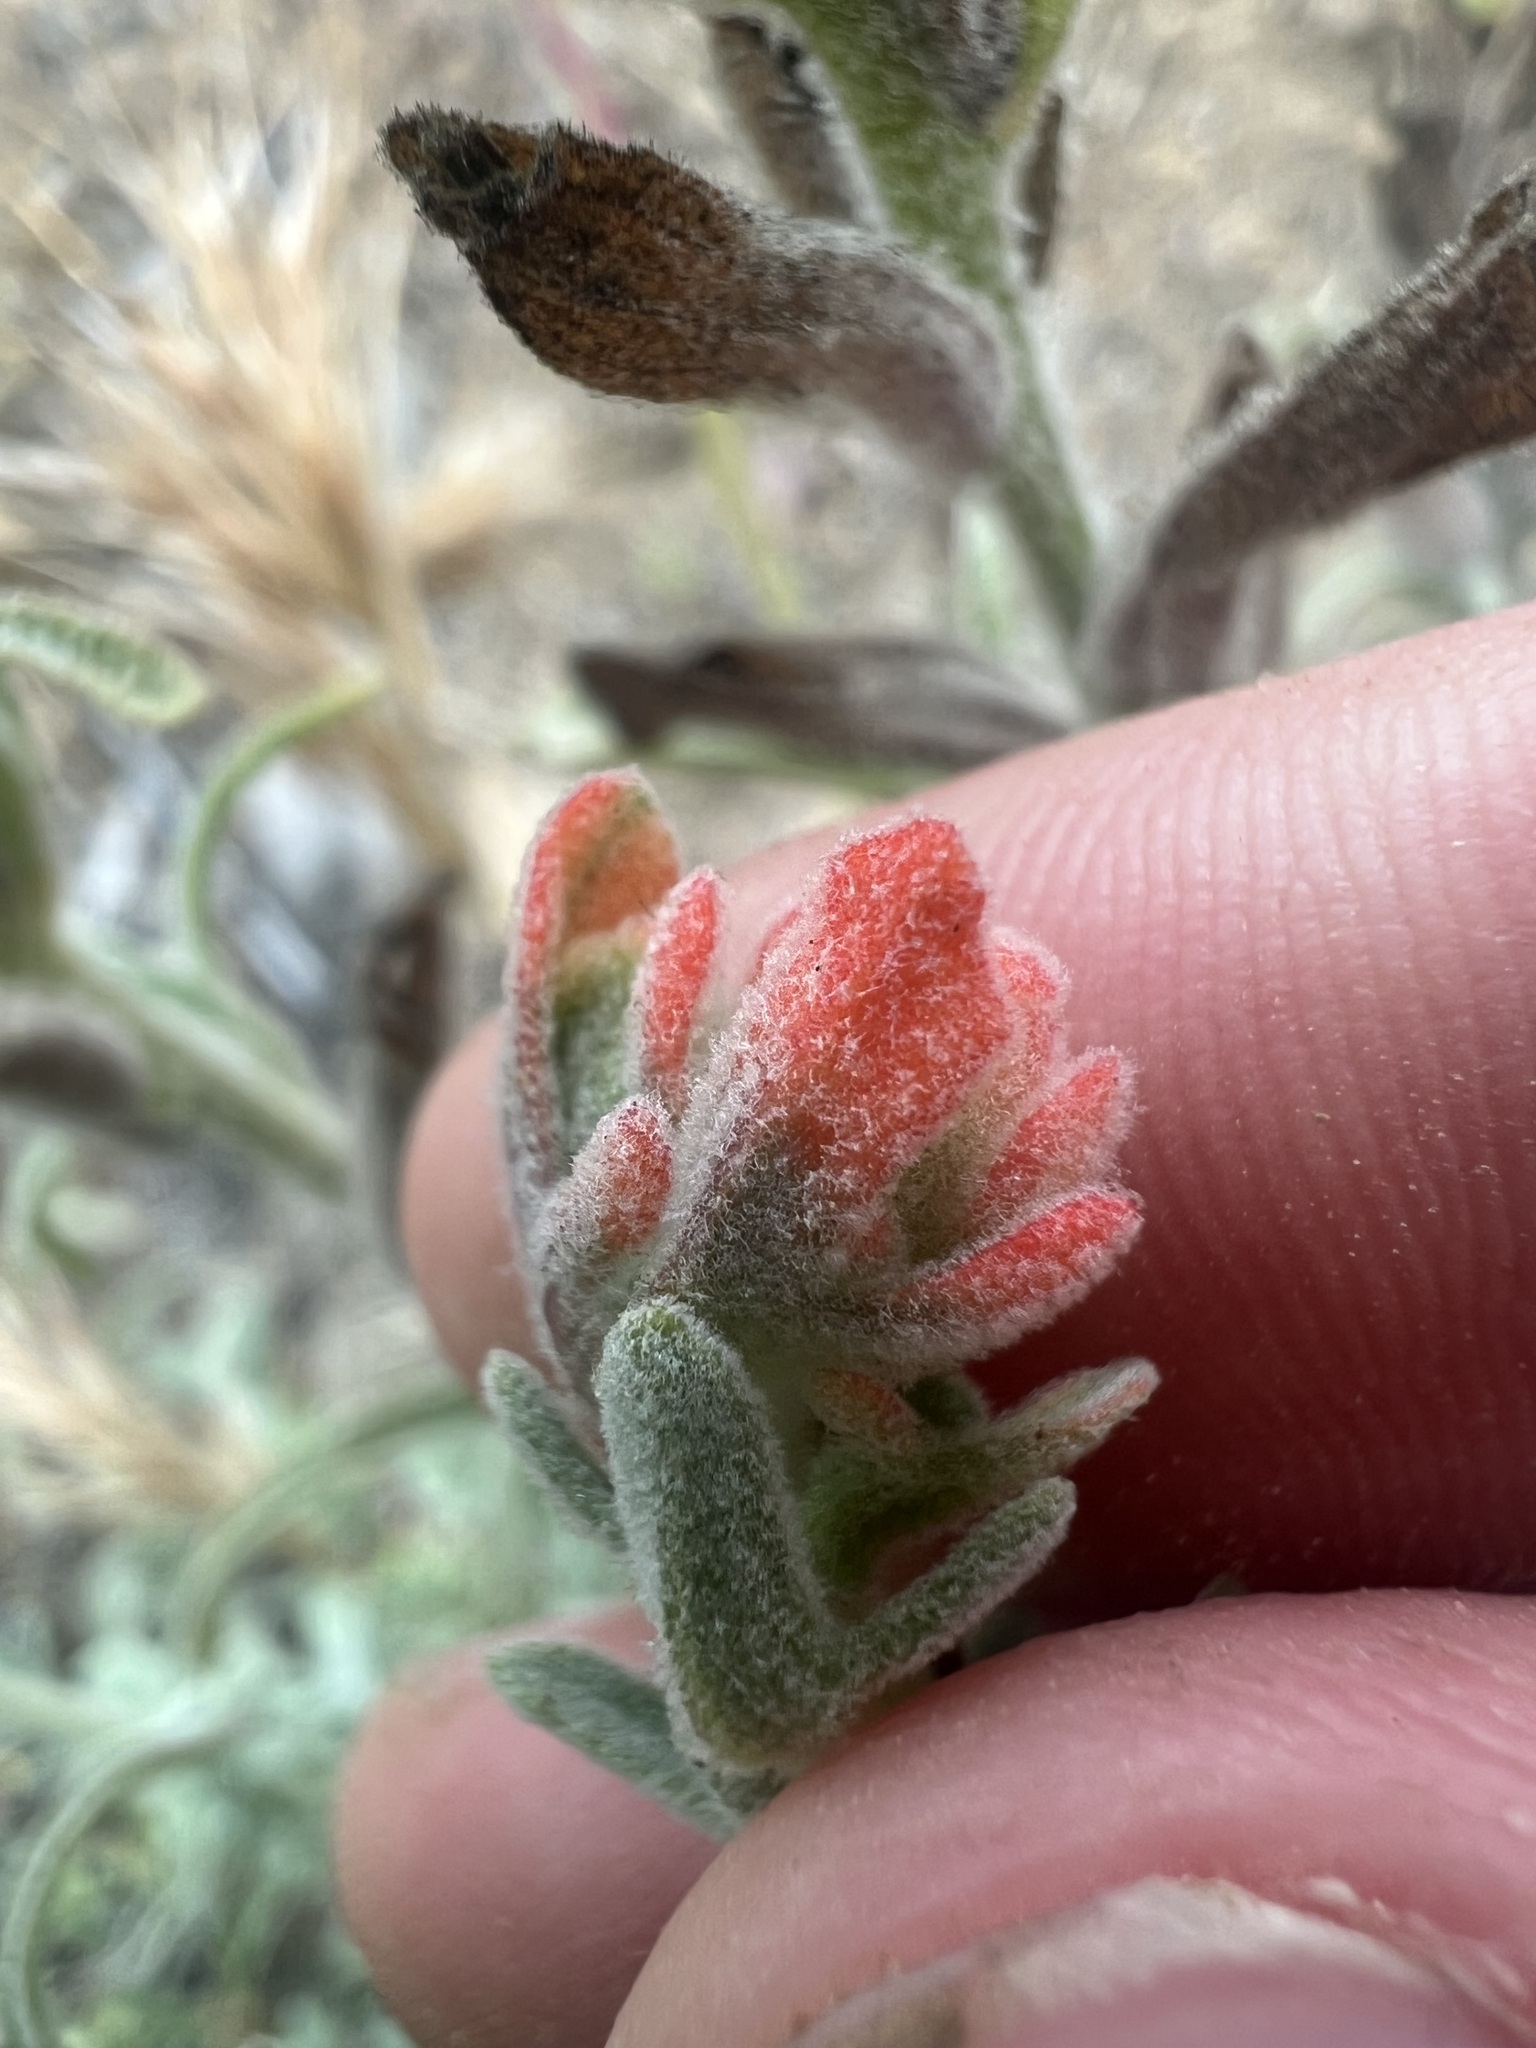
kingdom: Plantae
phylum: Tracheophyta
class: Magnoliopsida
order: Lamiales
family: Orobanchaceae
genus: Castilleja
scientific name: Castilleja foliolosa
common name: Woolly indian paintbrush
